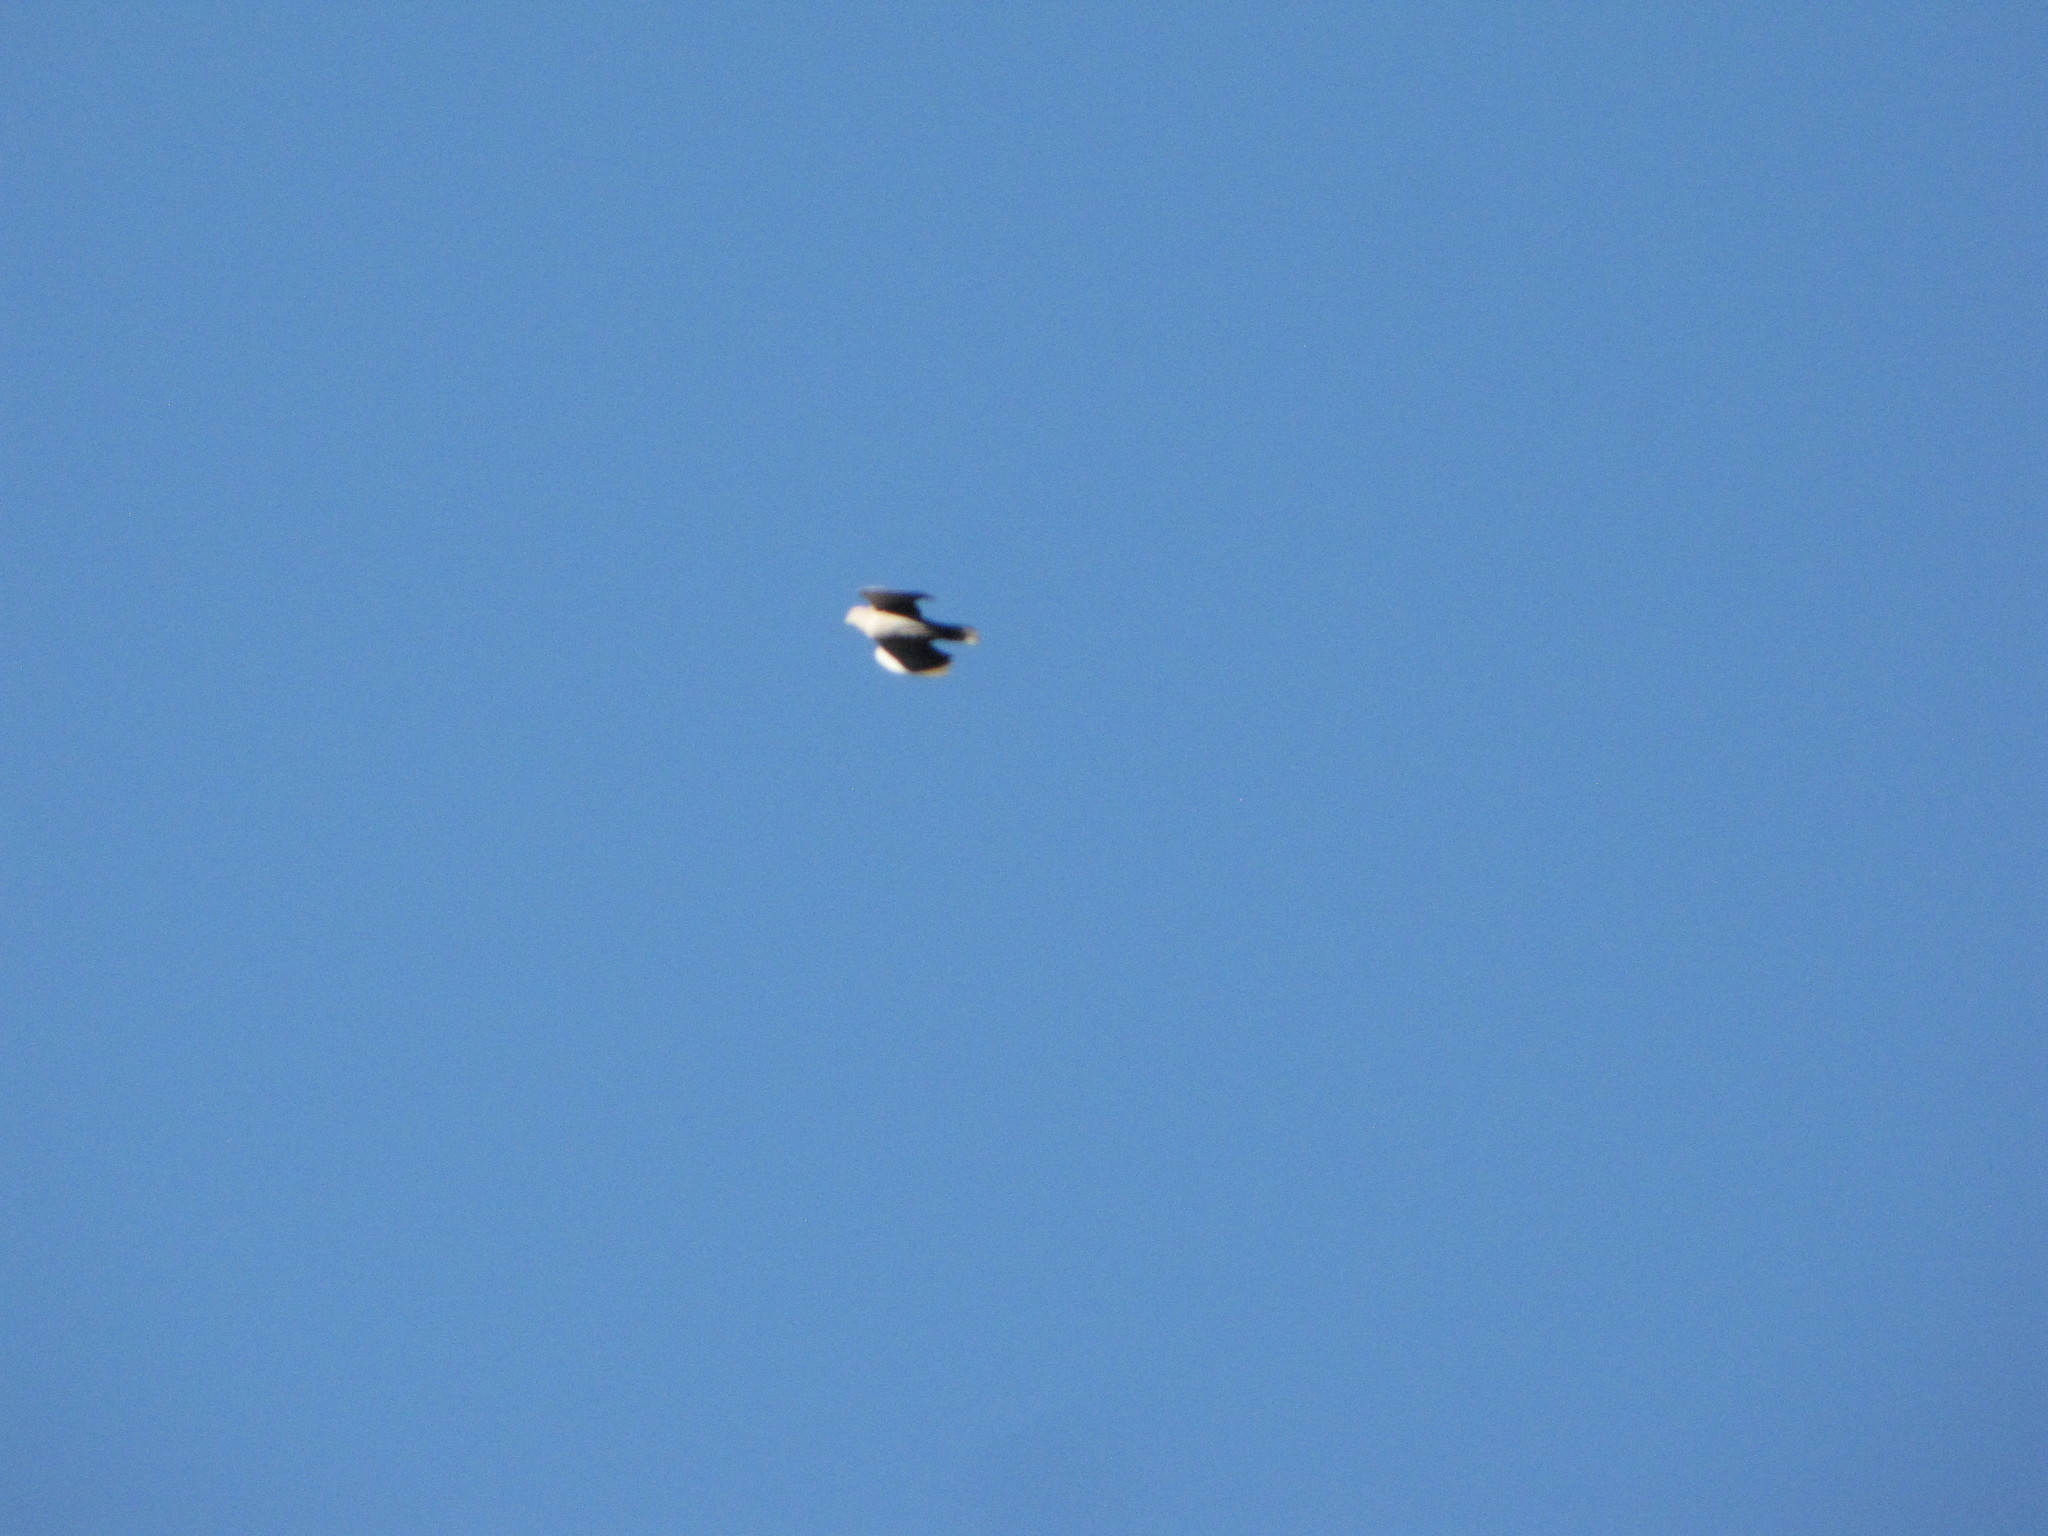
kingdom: Animalia
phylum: Chordata
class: Aves
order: Columbiformes
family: Columbidae
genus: Streptopelia
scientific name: Streptopelia decaocto
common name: Eurasian collared dove
